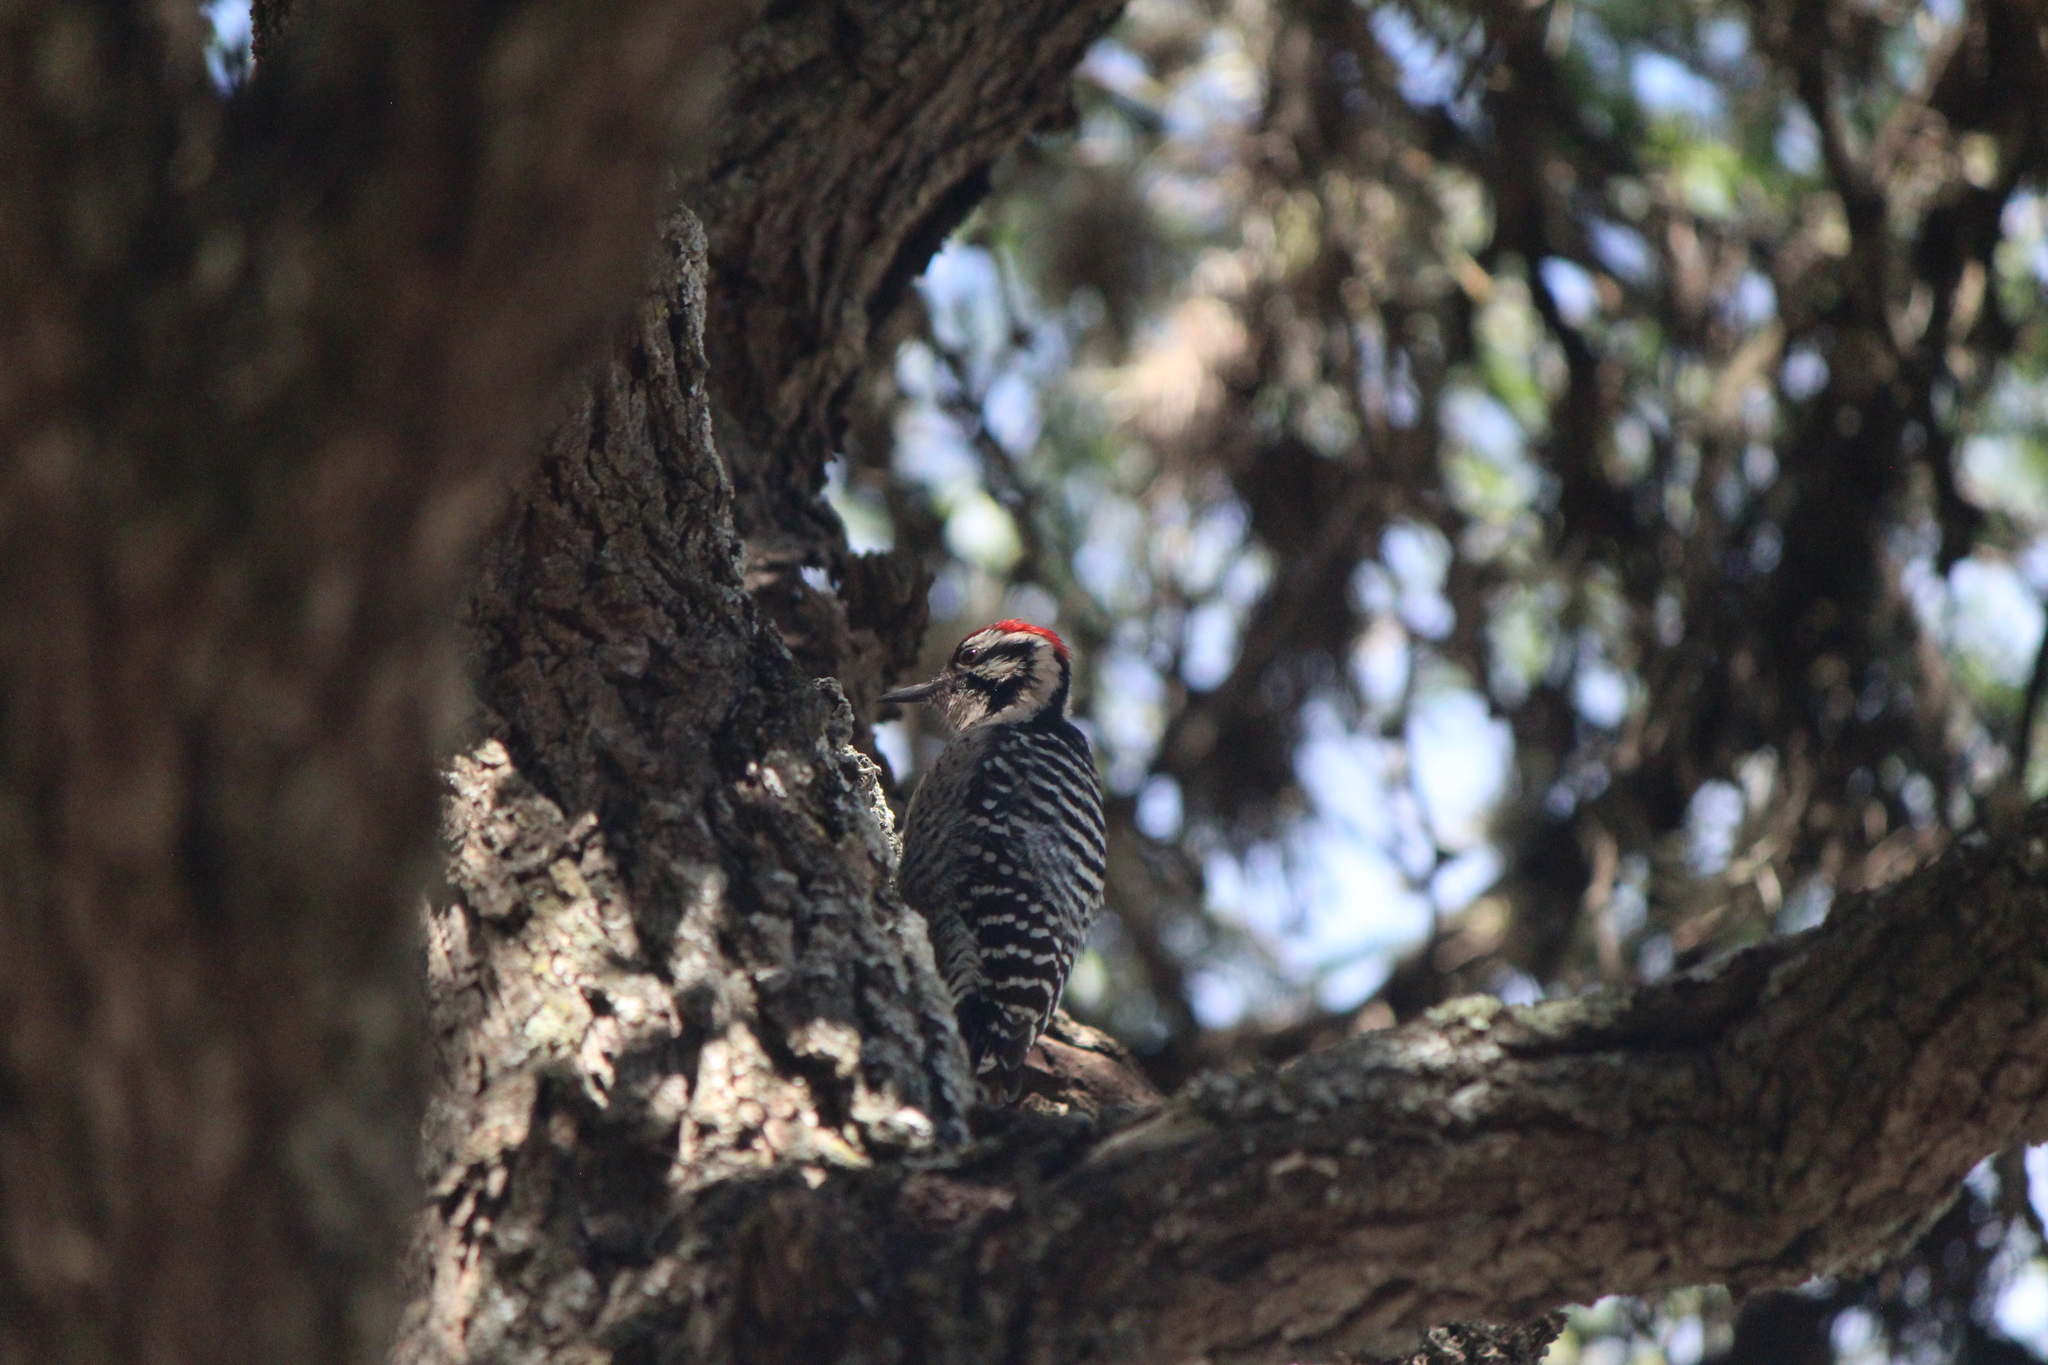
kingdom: Animalia
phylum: Chordata
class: Aves
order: Piciformes
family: Picidae
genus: Dryobates
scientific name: Dryobates scalaris
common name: Ladder-backed woodpecker
